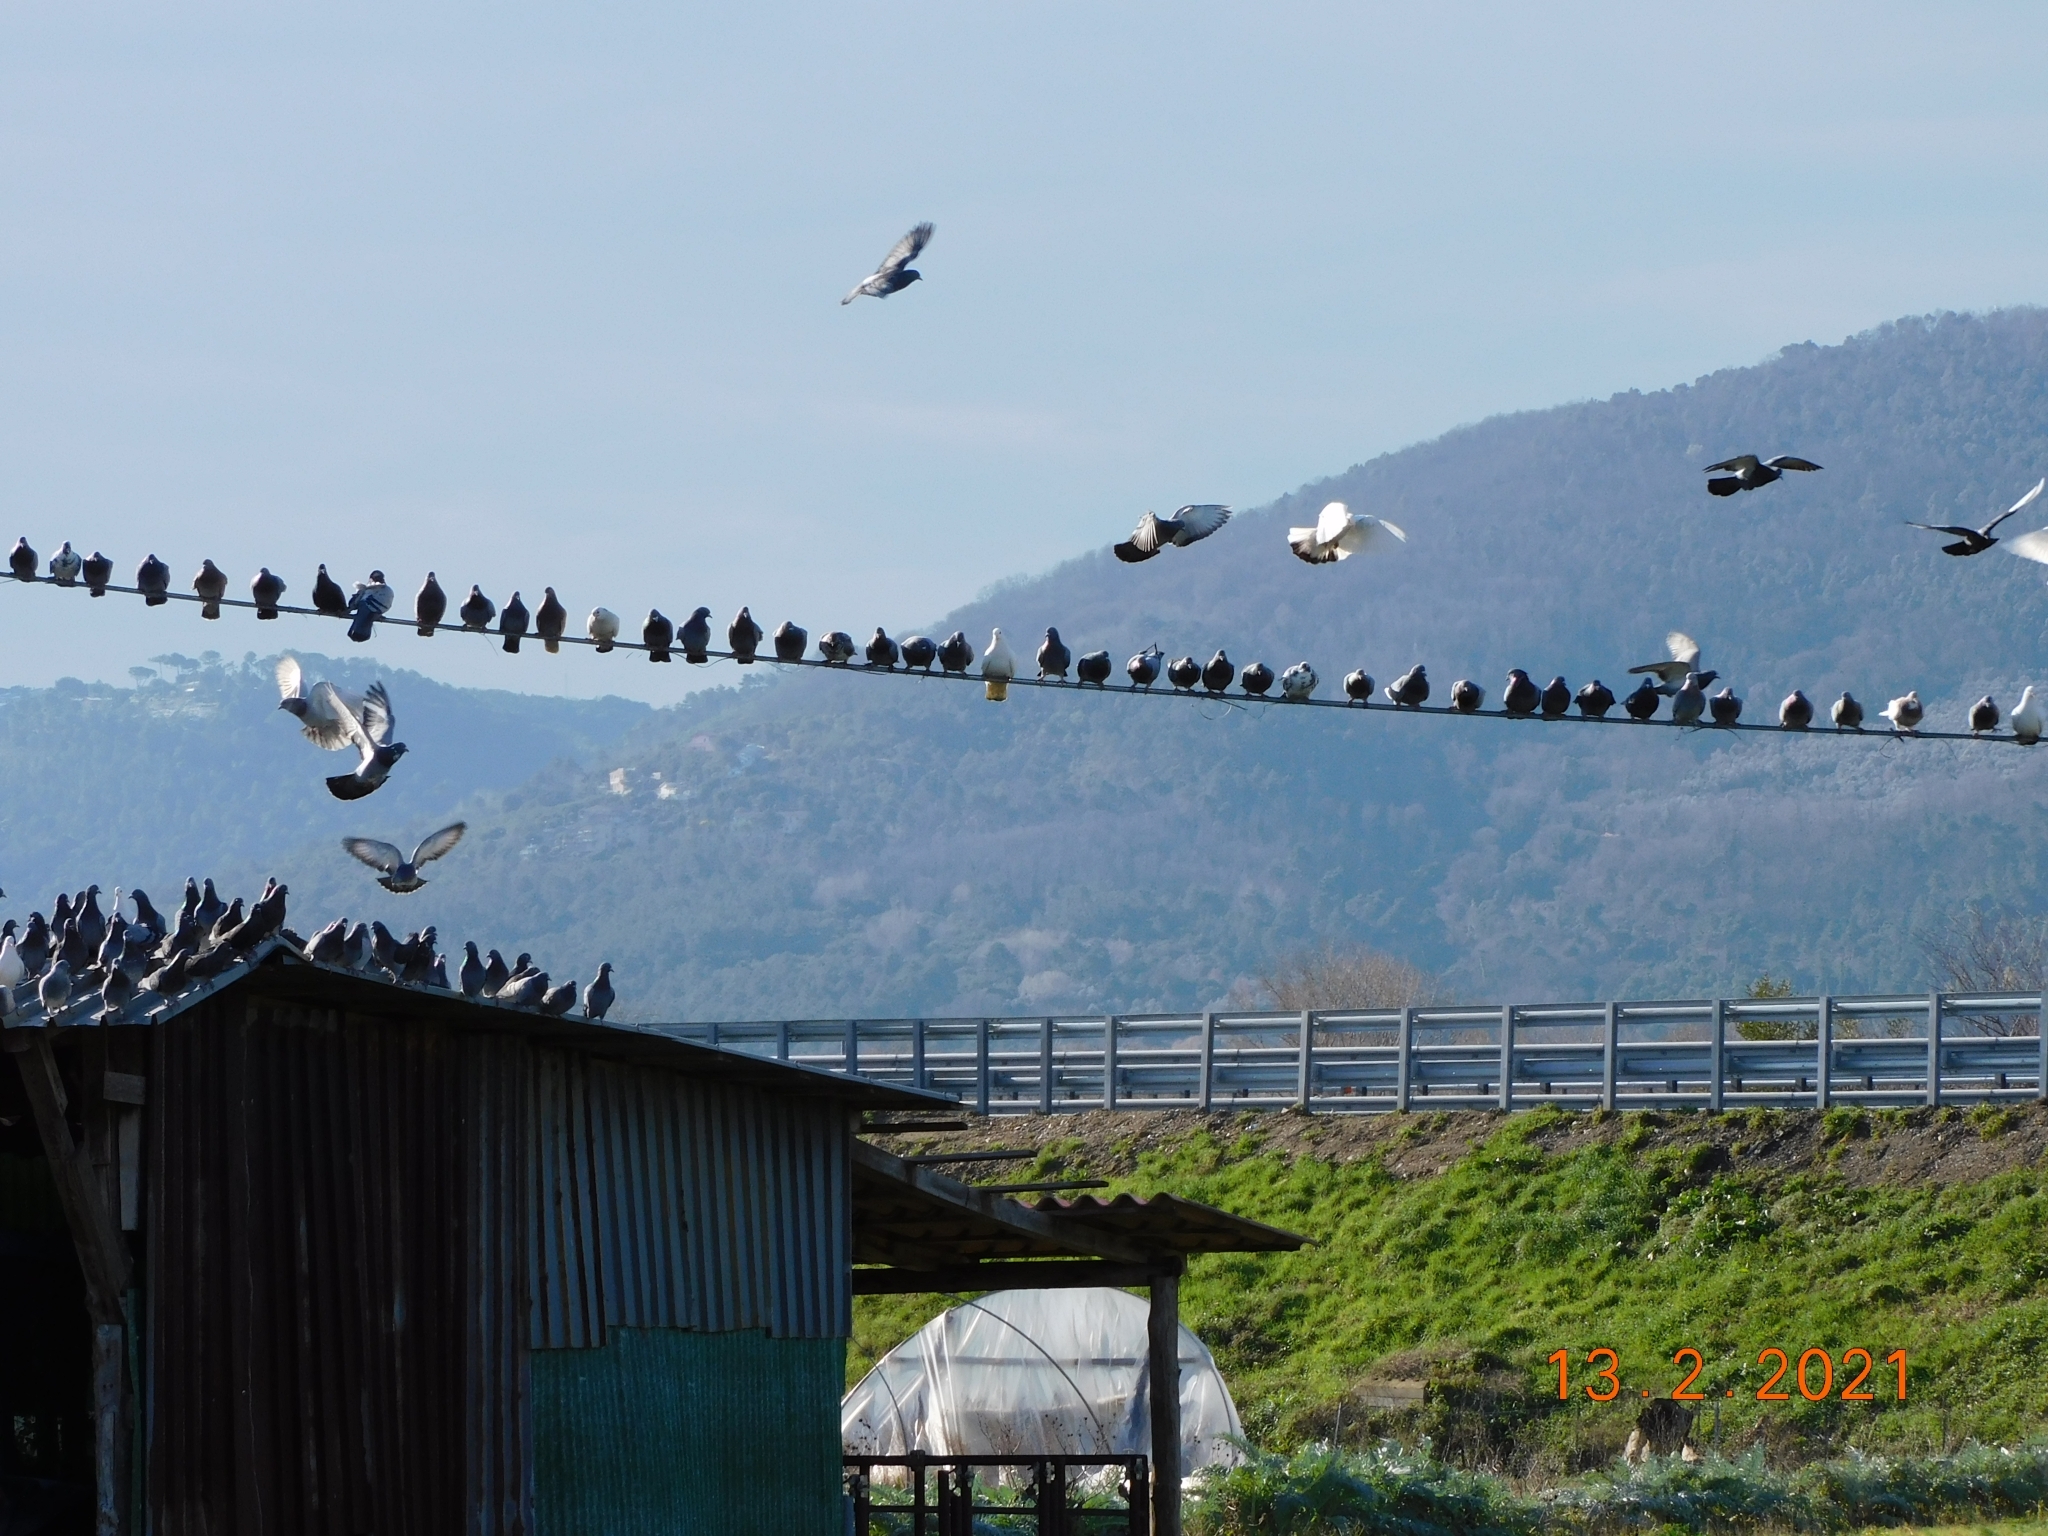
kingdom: Animalia
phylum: Chordata
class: Aves
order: Columbiformes
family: Columbidae
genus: Columba
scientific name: Columba livia
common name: Rock pigeon
